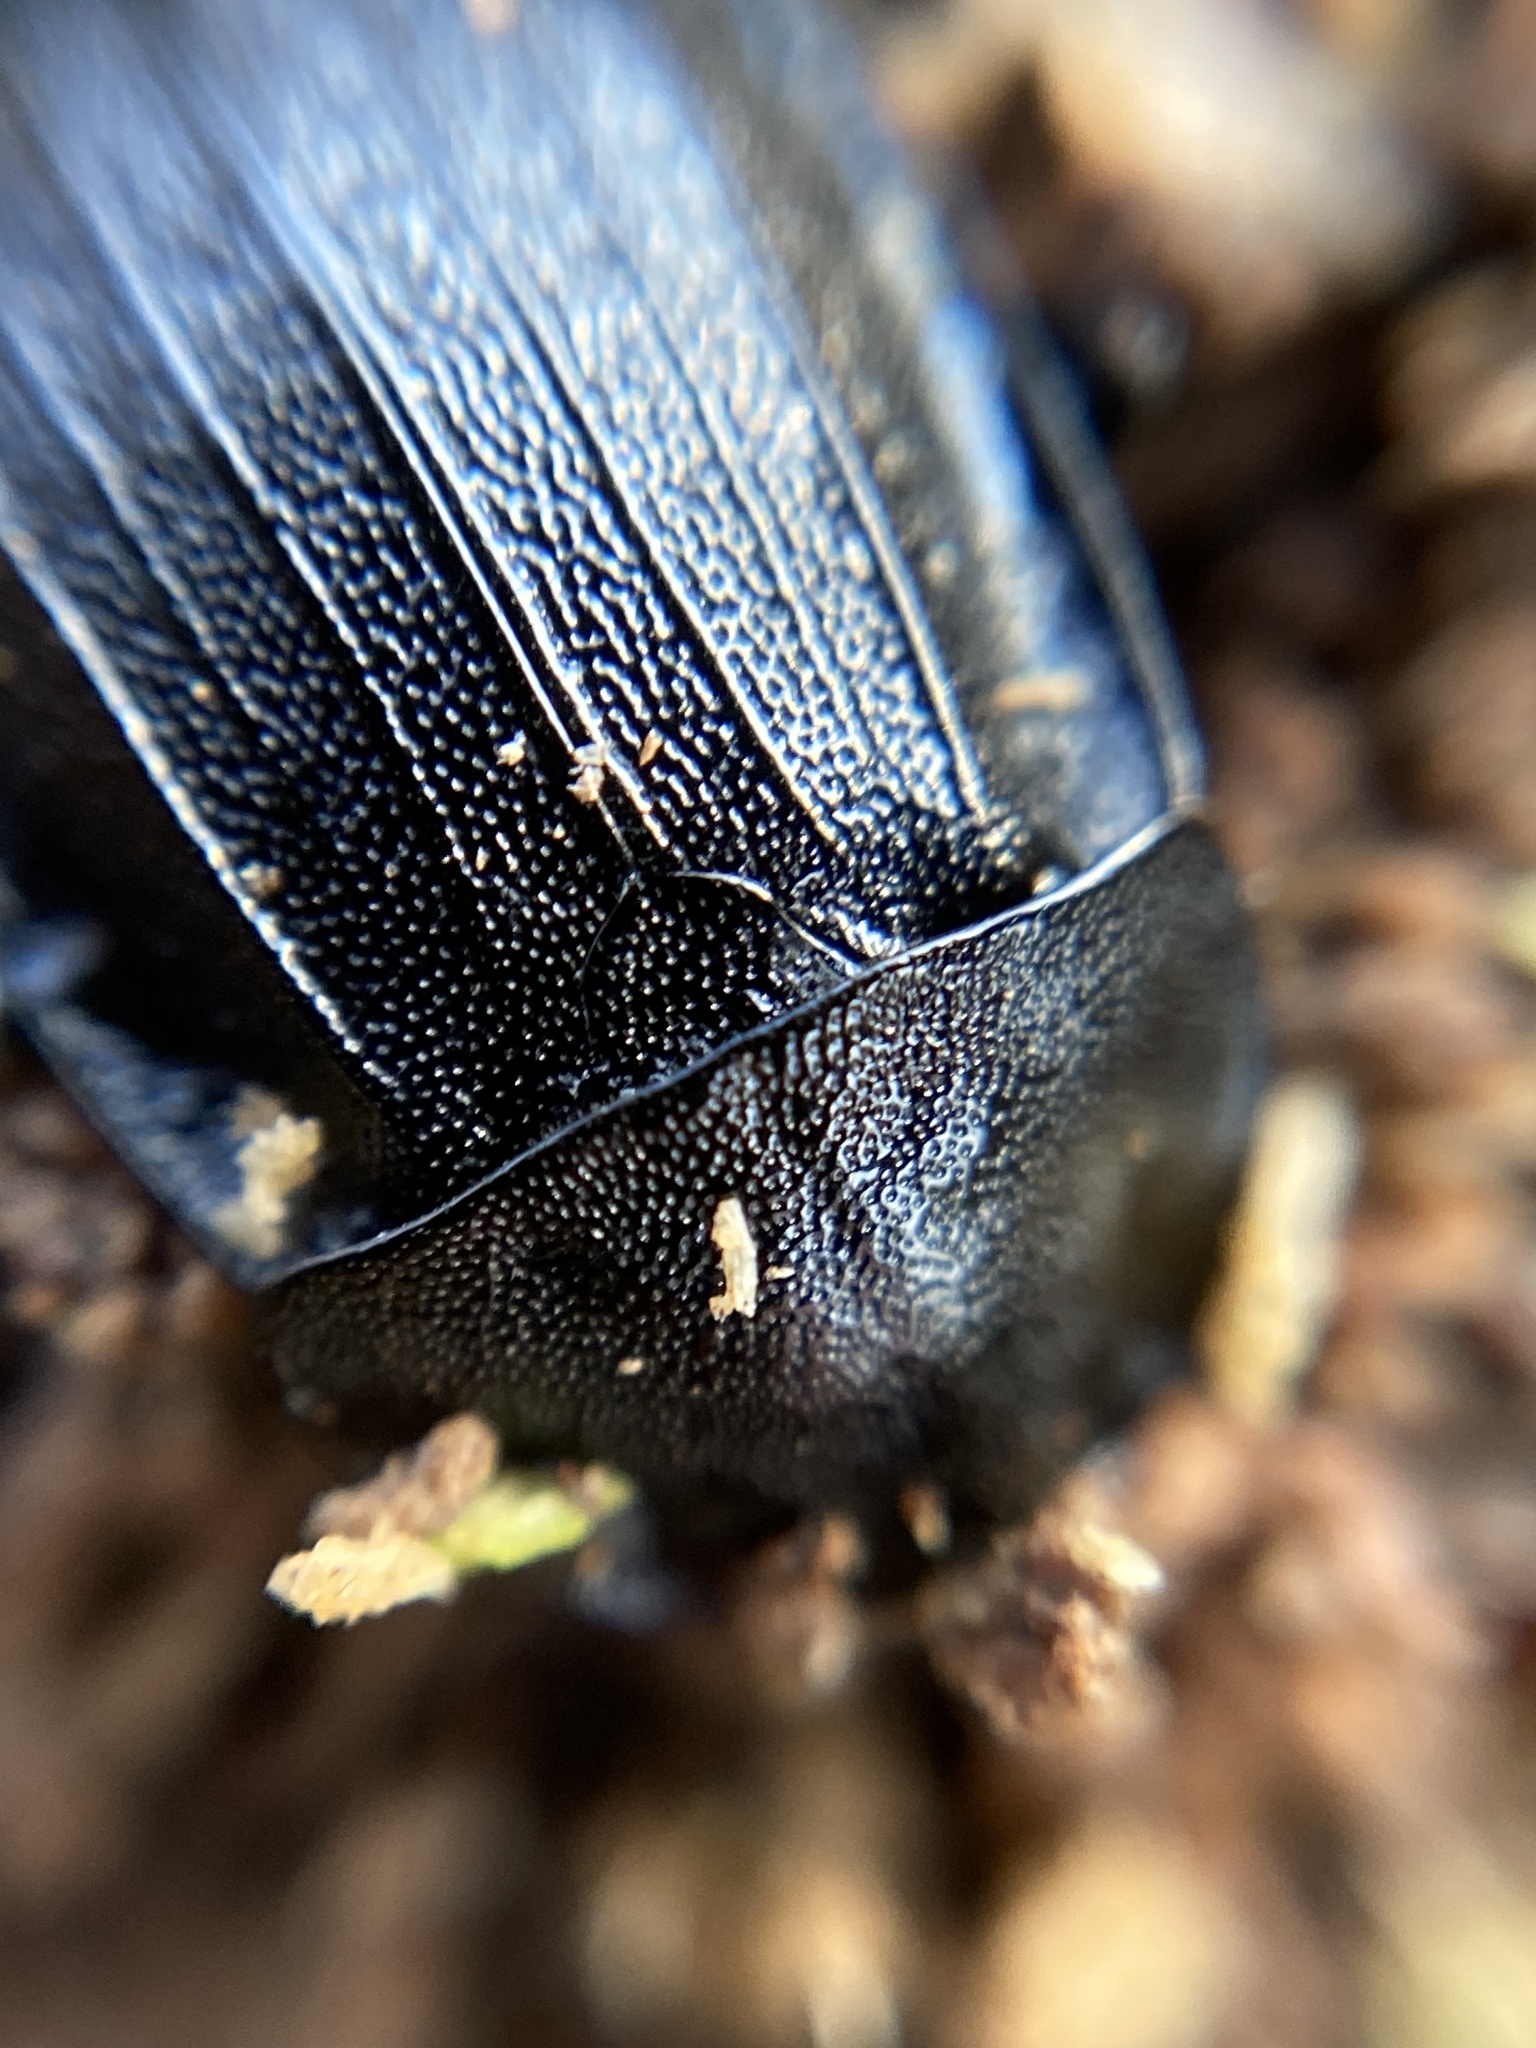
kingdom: Animalia
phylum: Arthropoda
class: Insecta
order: Coleoptera
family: Staphylinidae
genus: Silpha
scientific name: Silpha atrata
